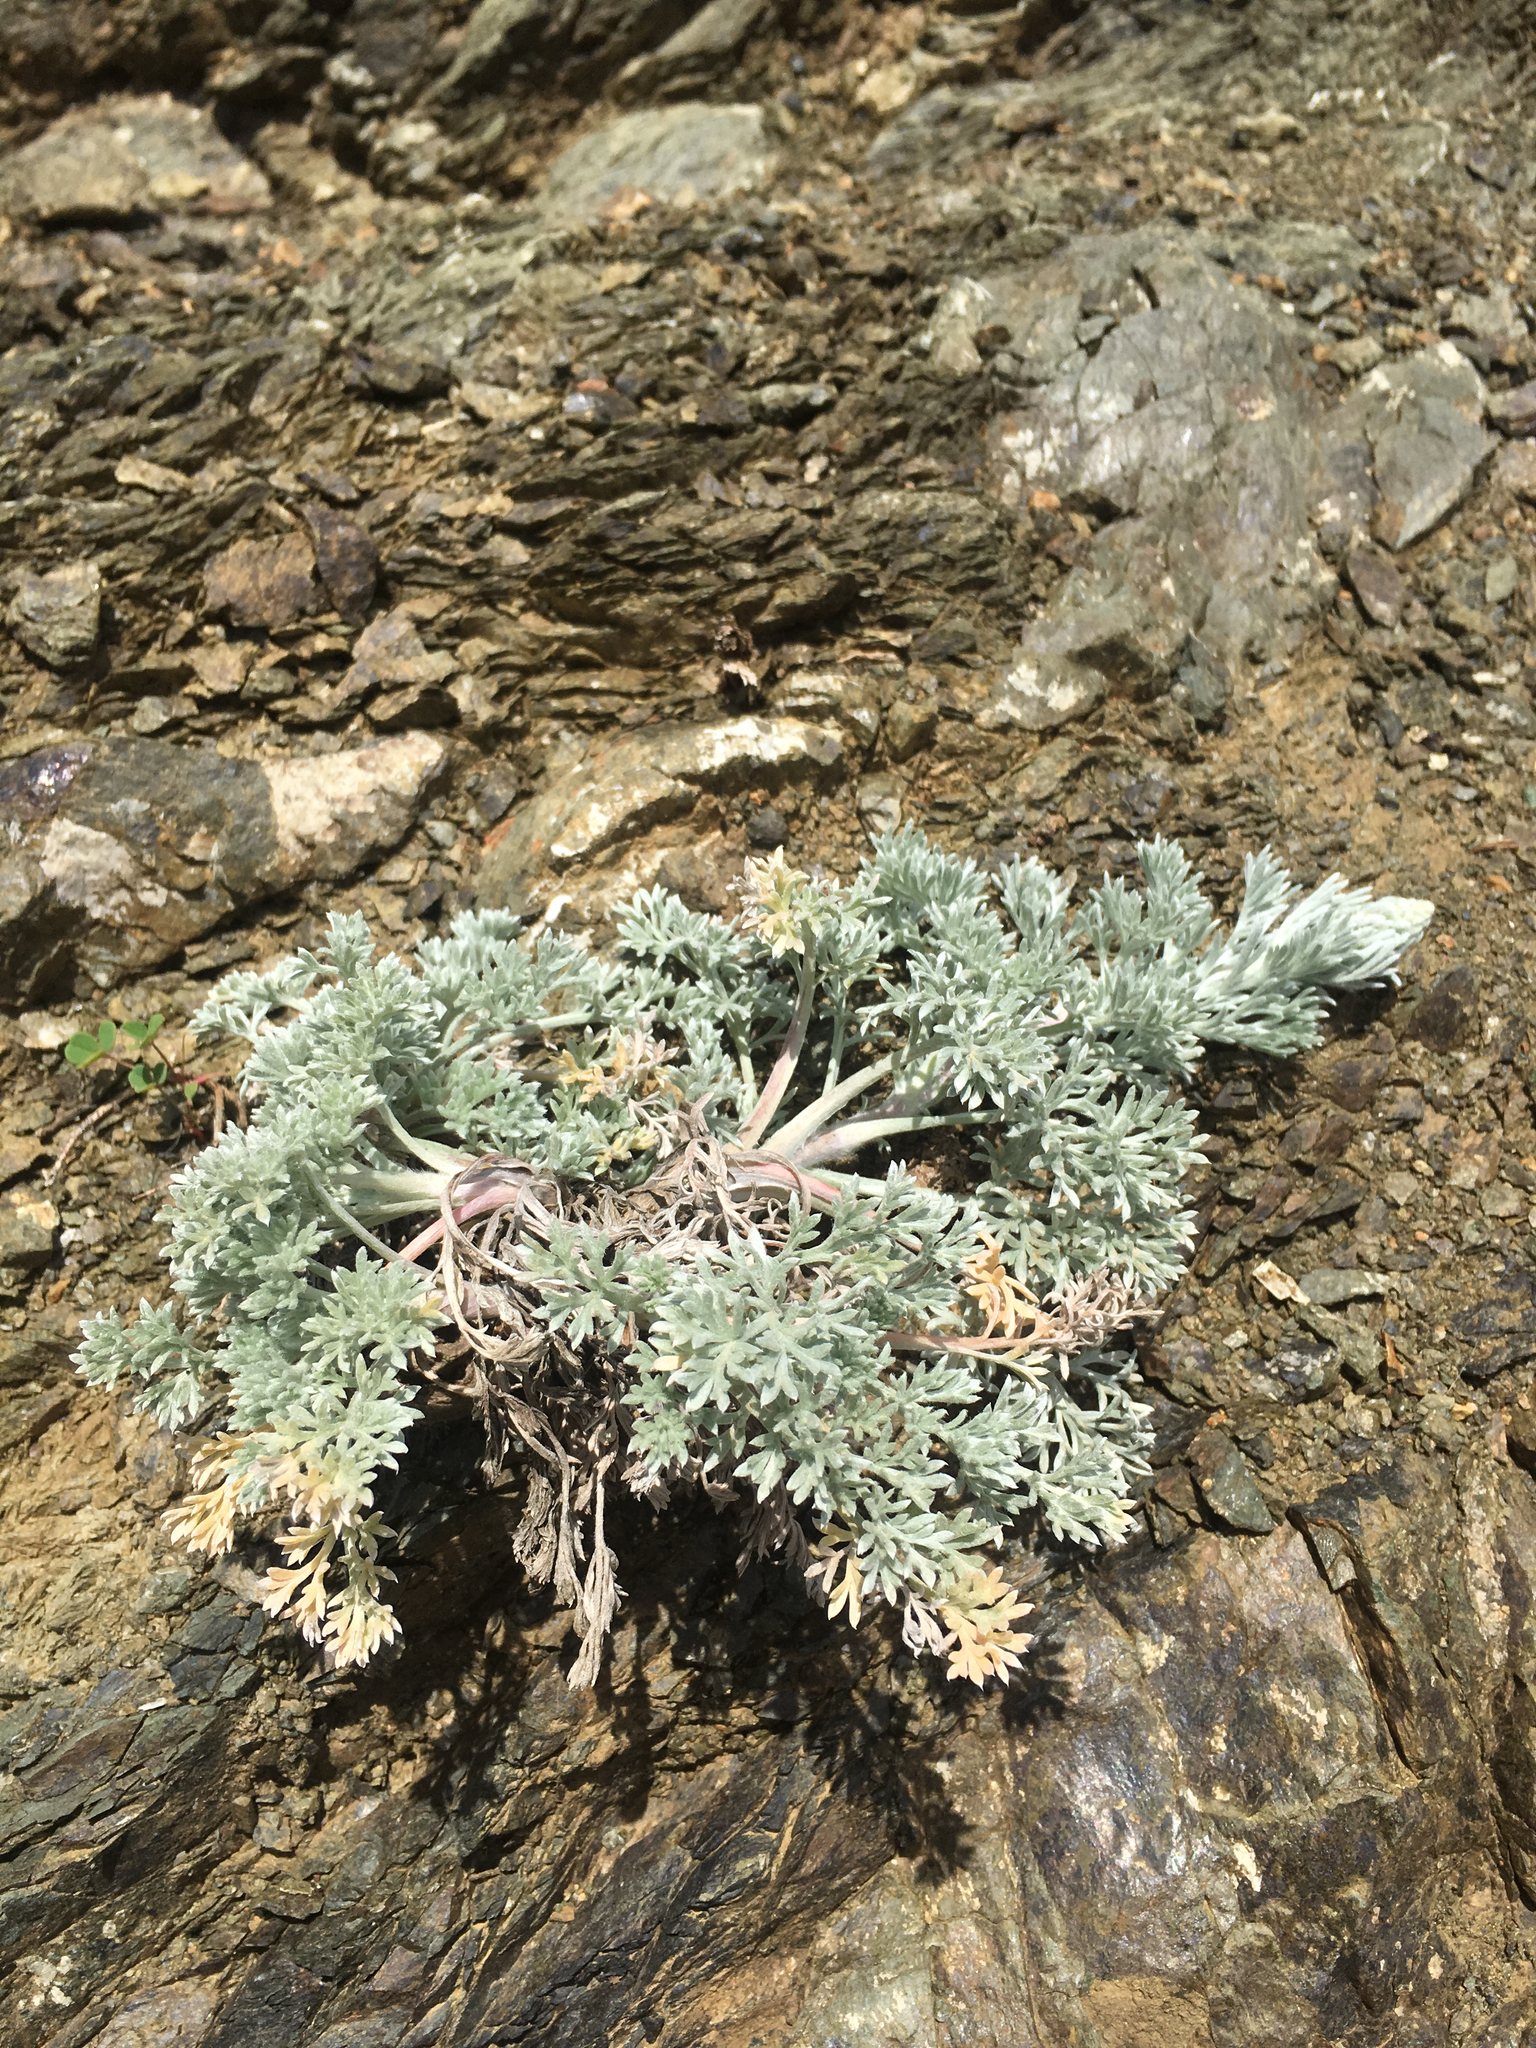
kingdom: Plantae
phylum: Tracheophyta
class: Magnoliopsida
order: Asterales
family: Asteraceae
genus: Artemisia
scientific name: Artemisia pycnocephala
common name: Coastal sagewort
